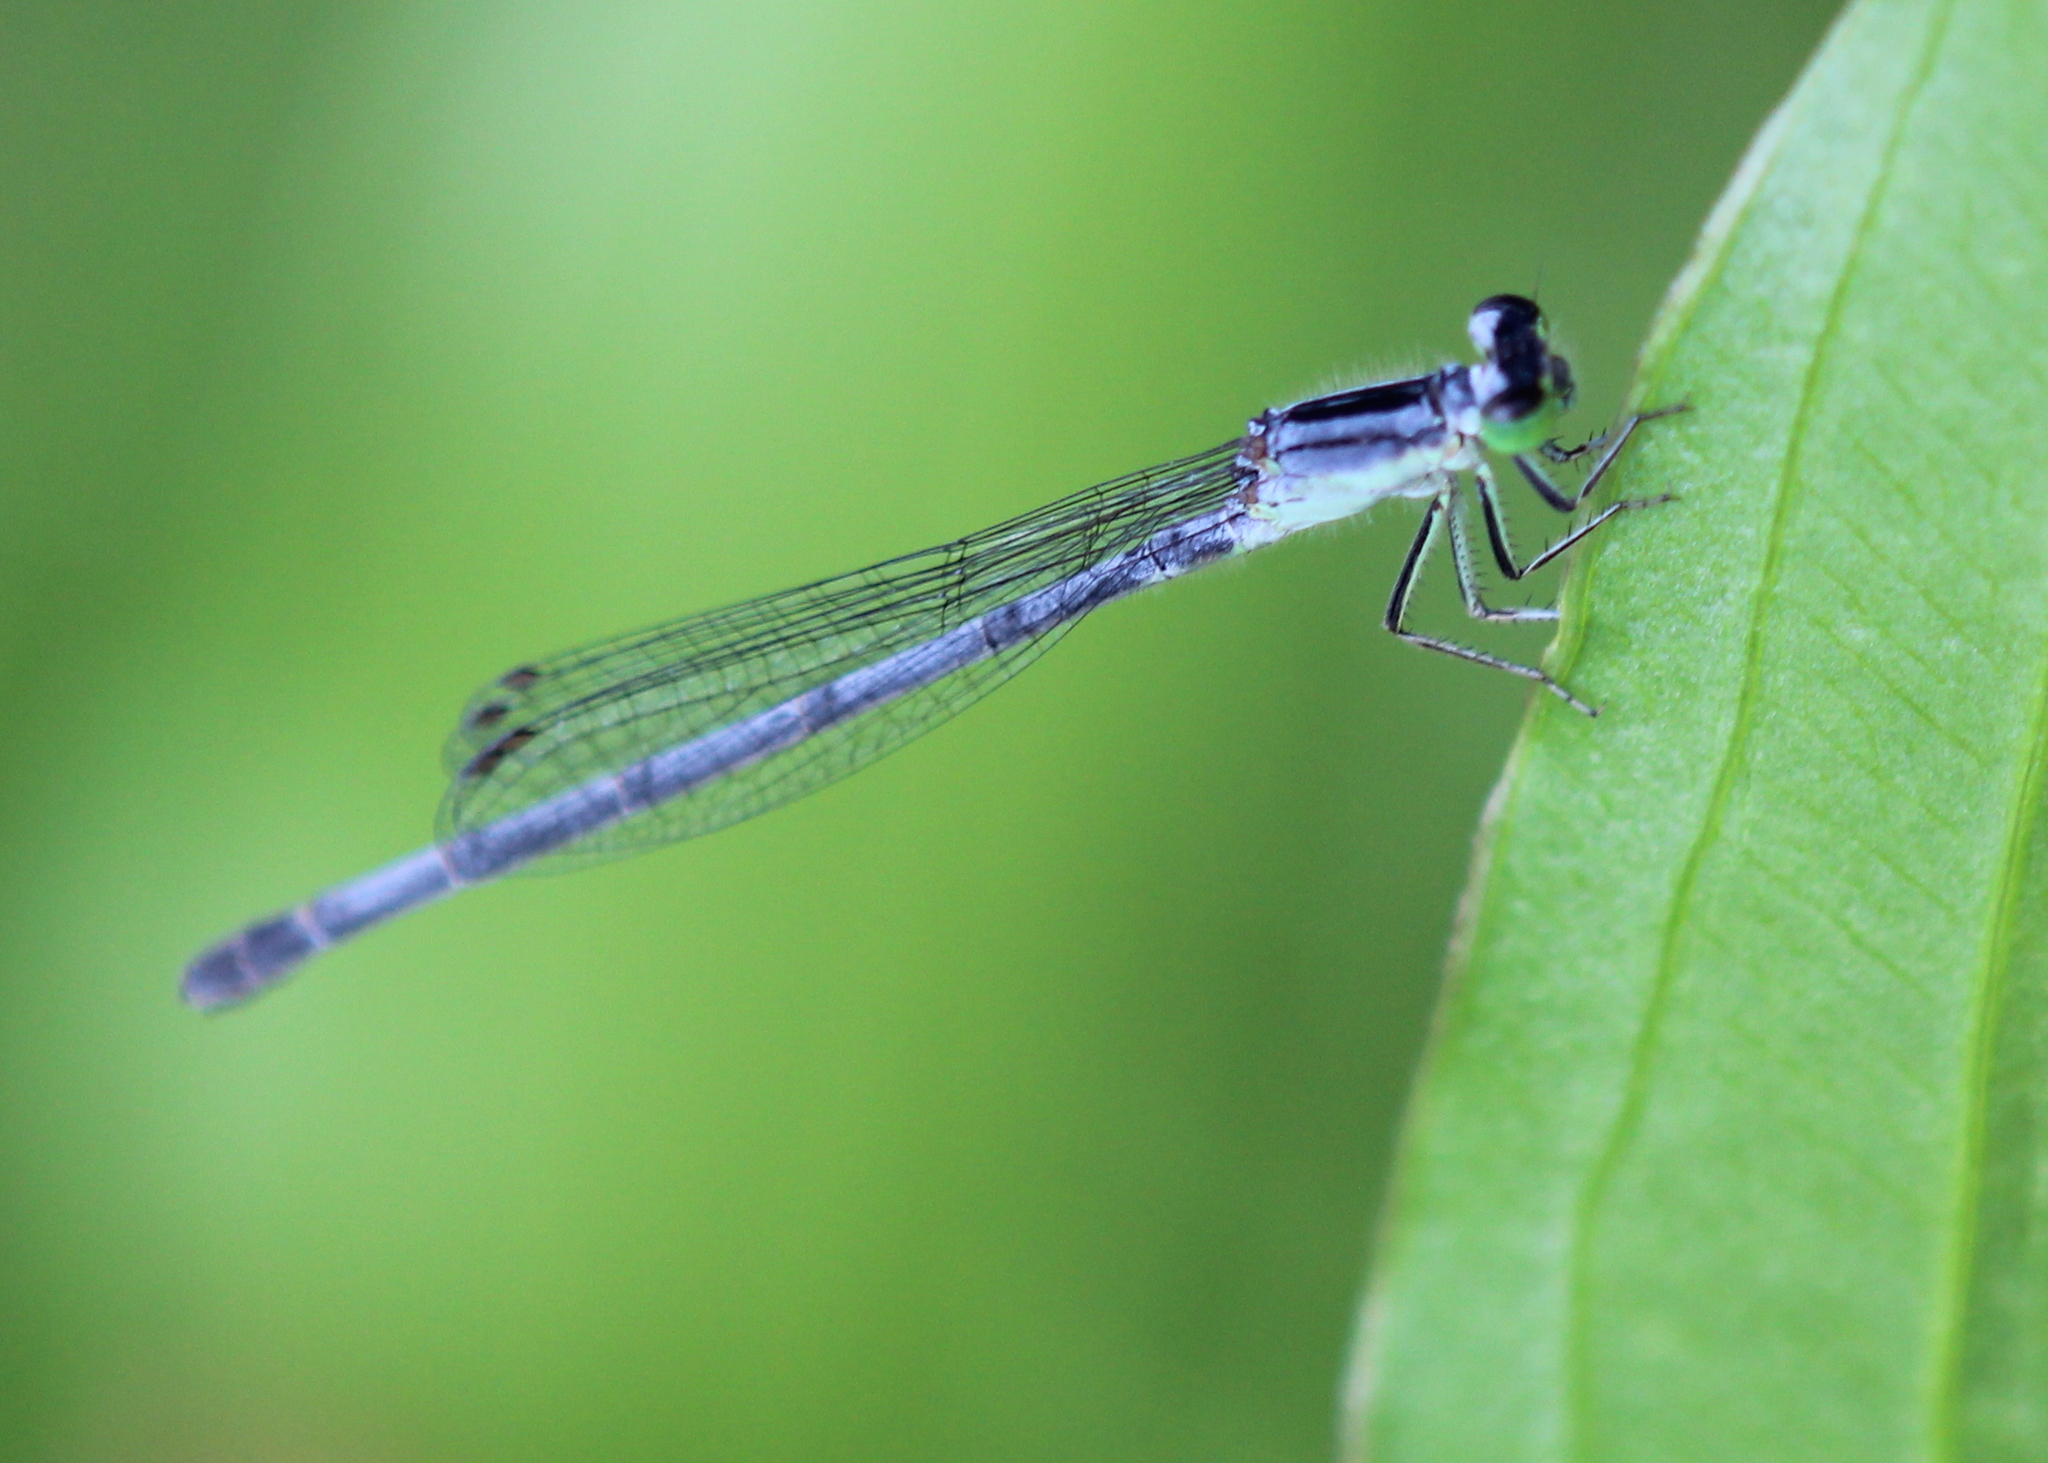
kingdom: Animalia
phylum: Arthropoda
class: Insecta
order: Odonata
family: Coenagrionidae
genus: Ischnura
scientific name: Ischnura verticalis
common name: Eastern forktail
